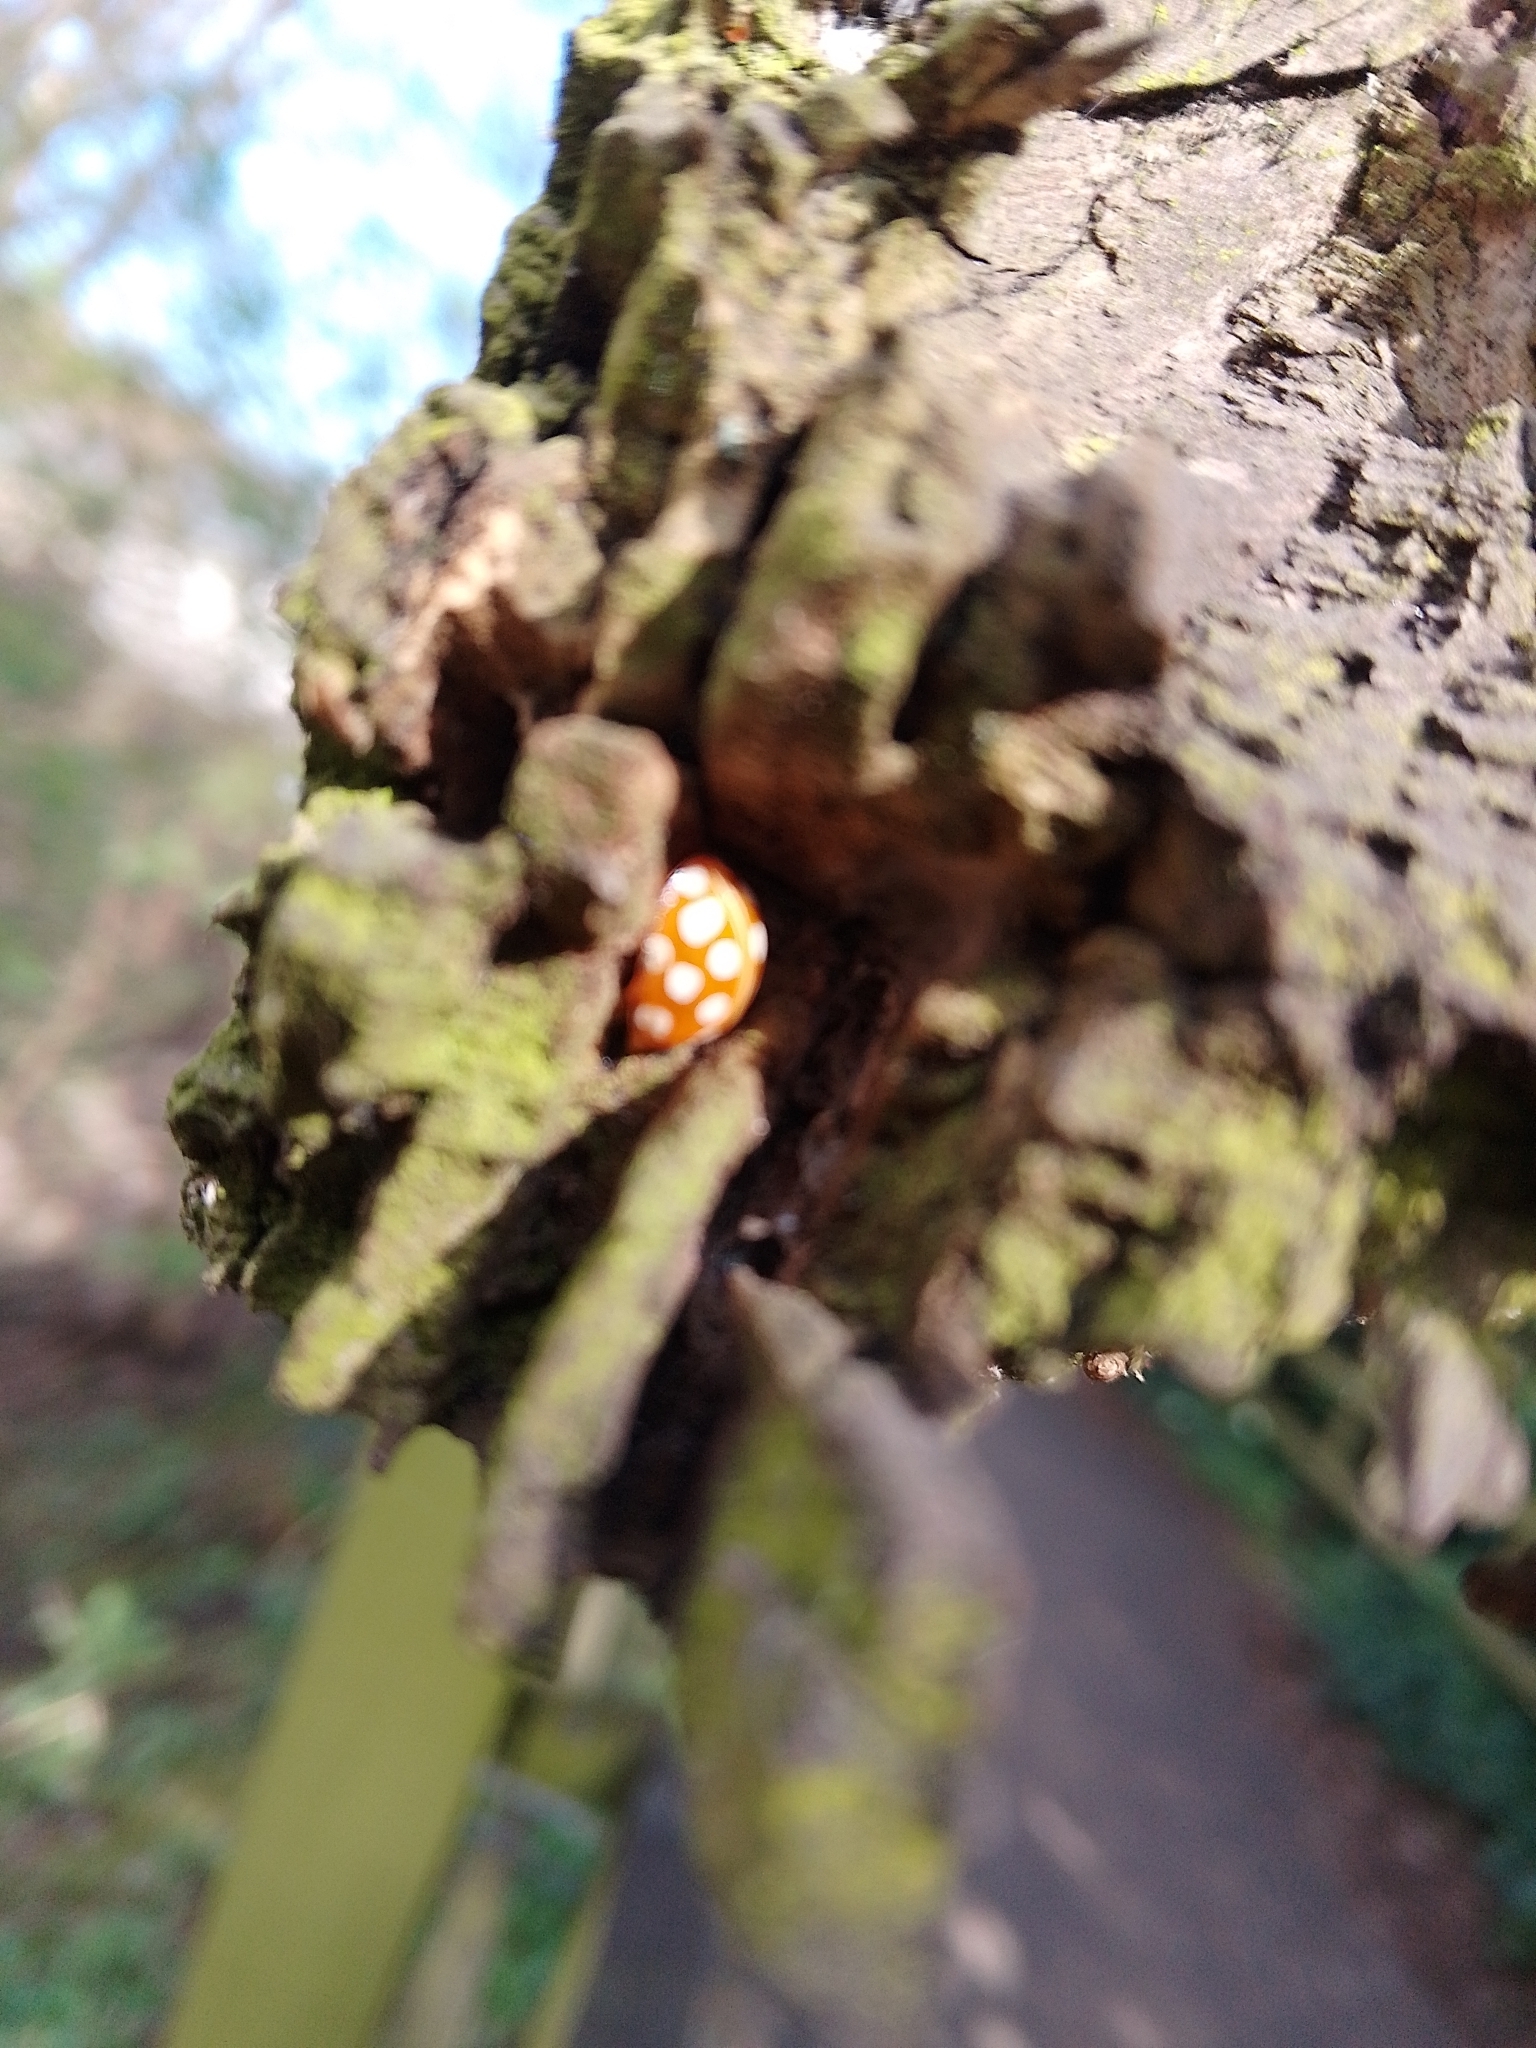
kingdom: Animalia
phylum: Arthropoda
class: Insecta
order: Coleoptera
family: Coccinellidae
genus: Halyzia
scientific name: Halyzia sedecimguttata
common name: Orange ladybird
